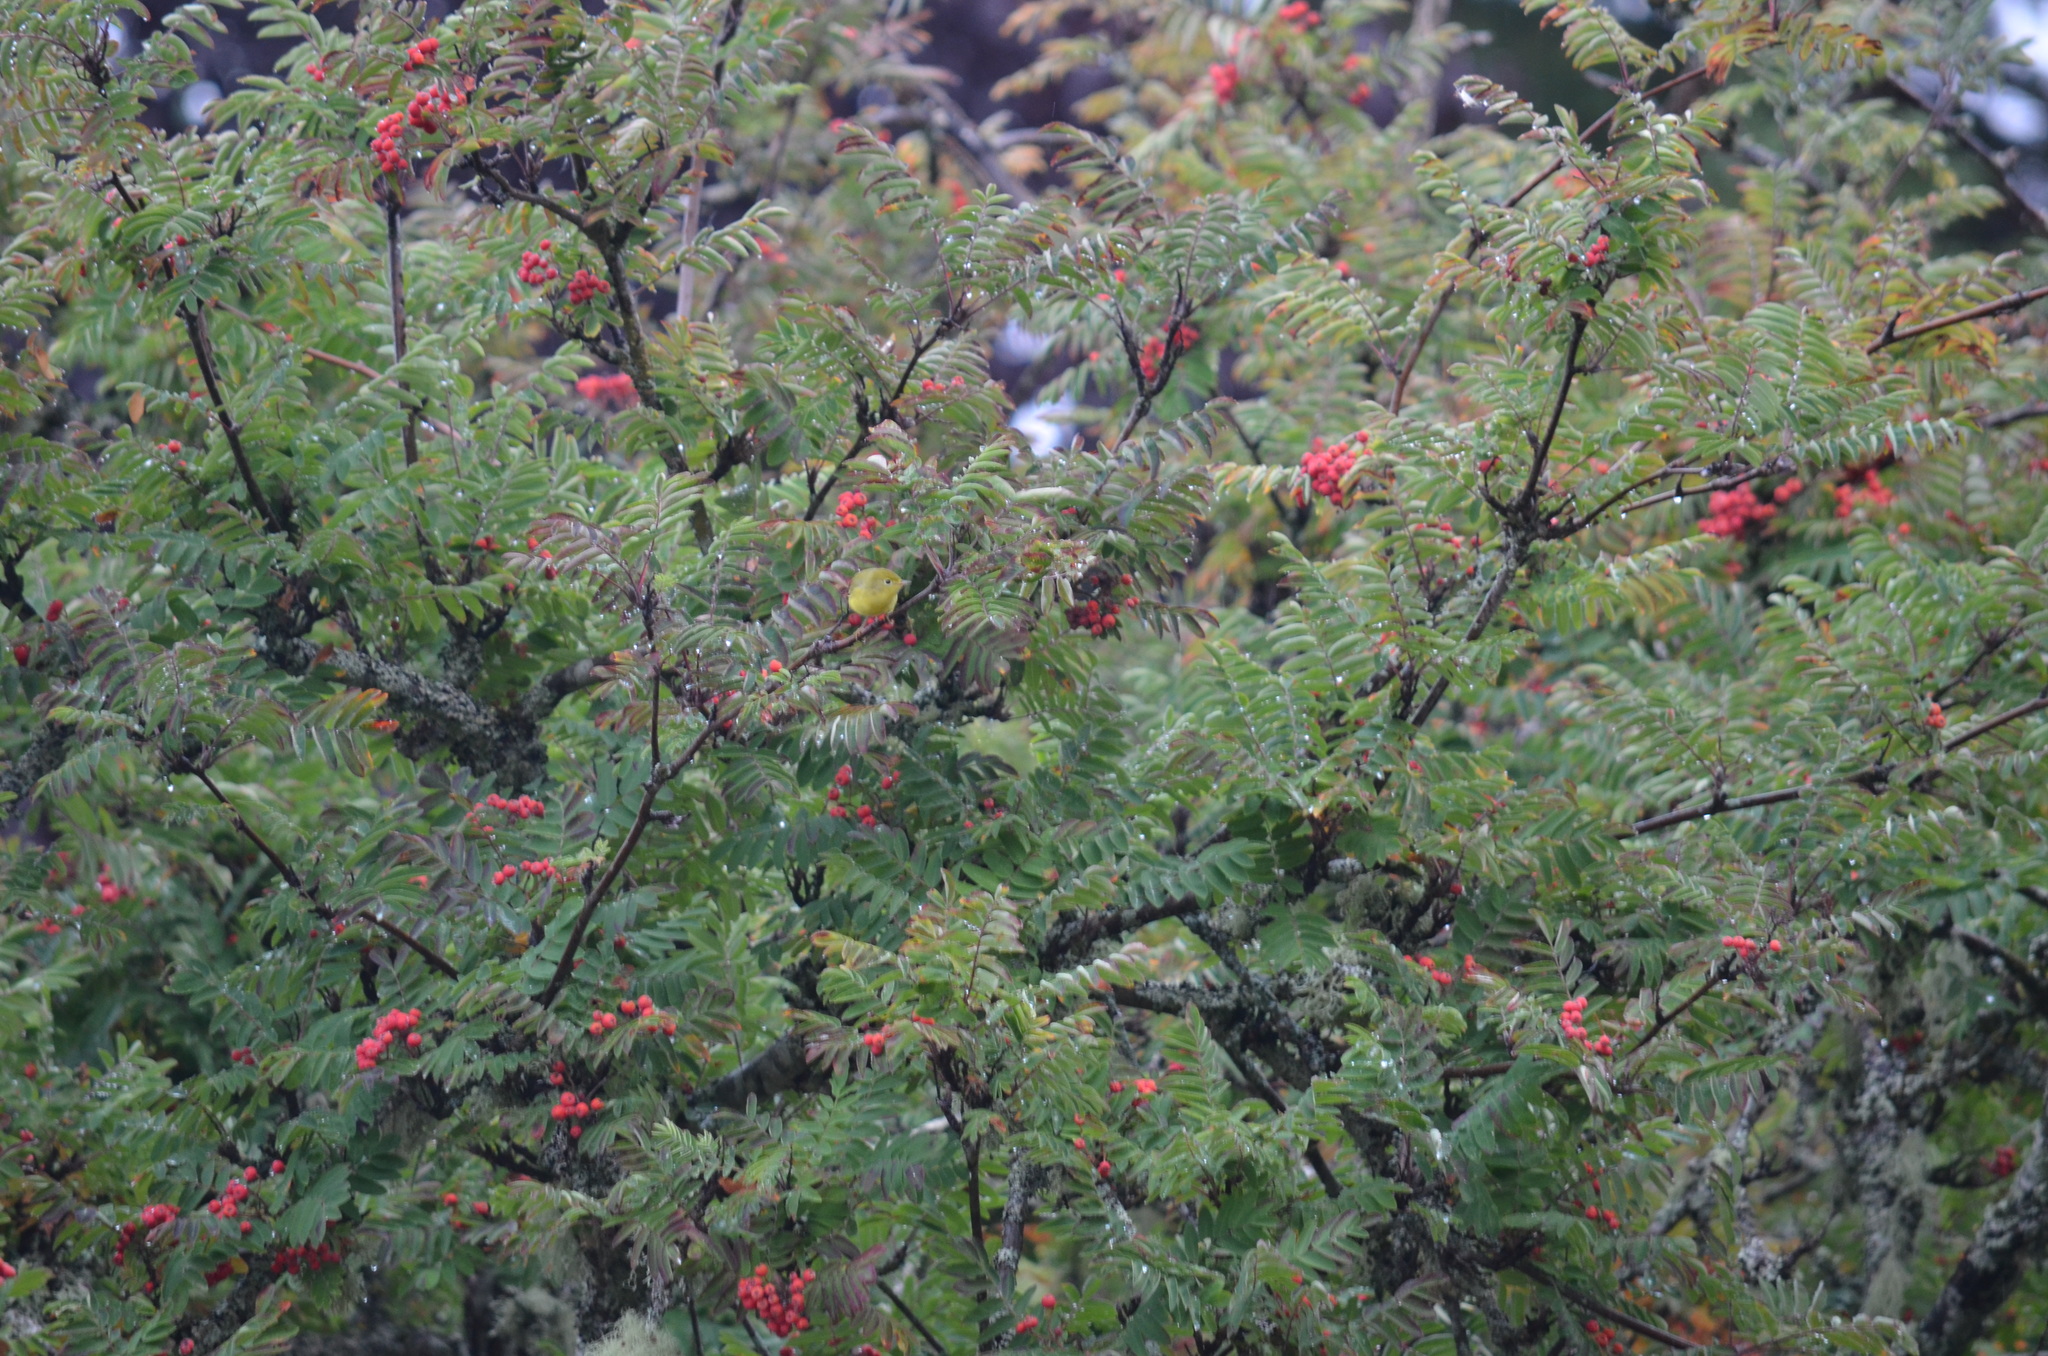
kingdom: Animalia
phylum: Chordata
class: Aves
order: Passeriformes
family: Parulidae
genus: Setophaga
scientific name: Setophaga petechia
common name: Yellow warbler
